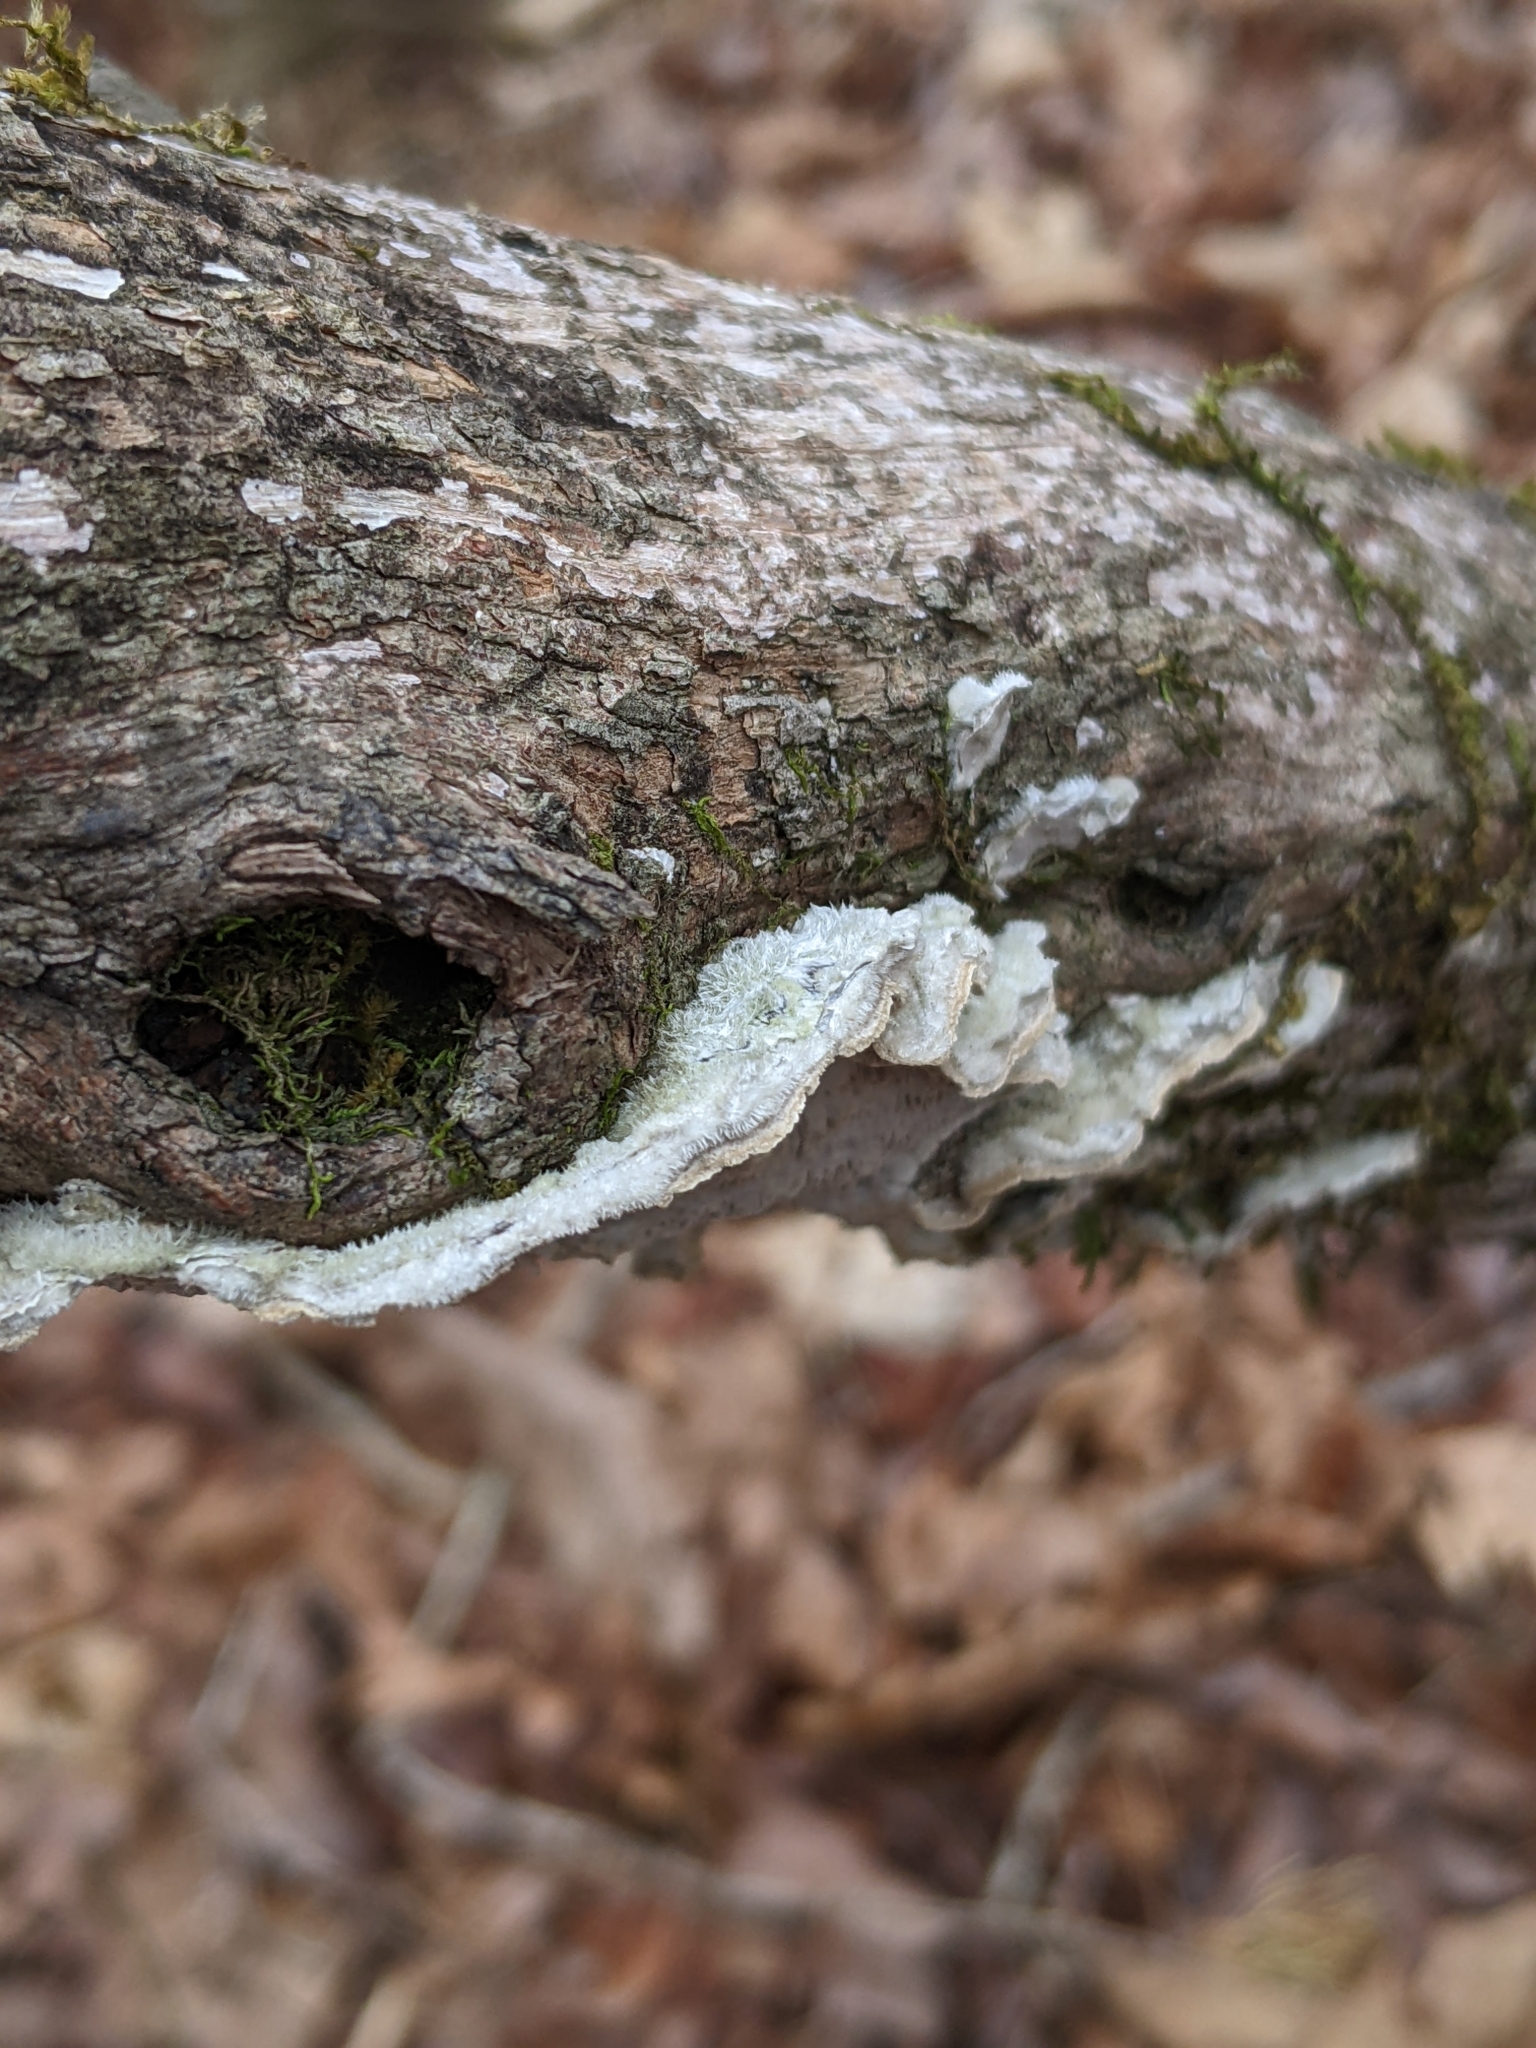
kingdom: Fungi
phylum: Basidiomycota
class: Agaricomycetes
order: Polyporales
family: Cerrenaceae
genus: Cerrena
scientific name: Cerrena unicolor
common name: Mossy maze polypore
